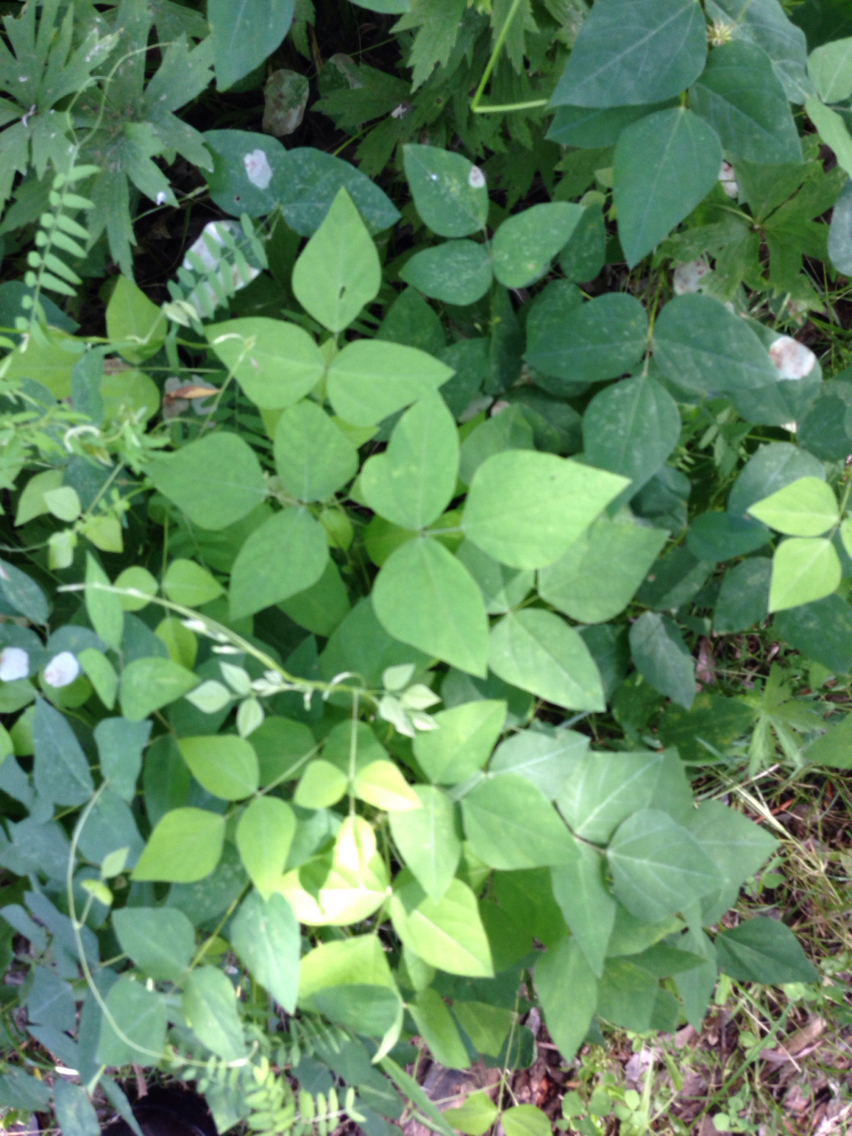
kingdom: Plantae
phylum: Tracheophyta
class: Magnoliopsida
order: Fabales
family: Fabaceae
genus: Amphicarpaea
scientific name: Amphicarpaea bracteata
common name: American hog peanut
